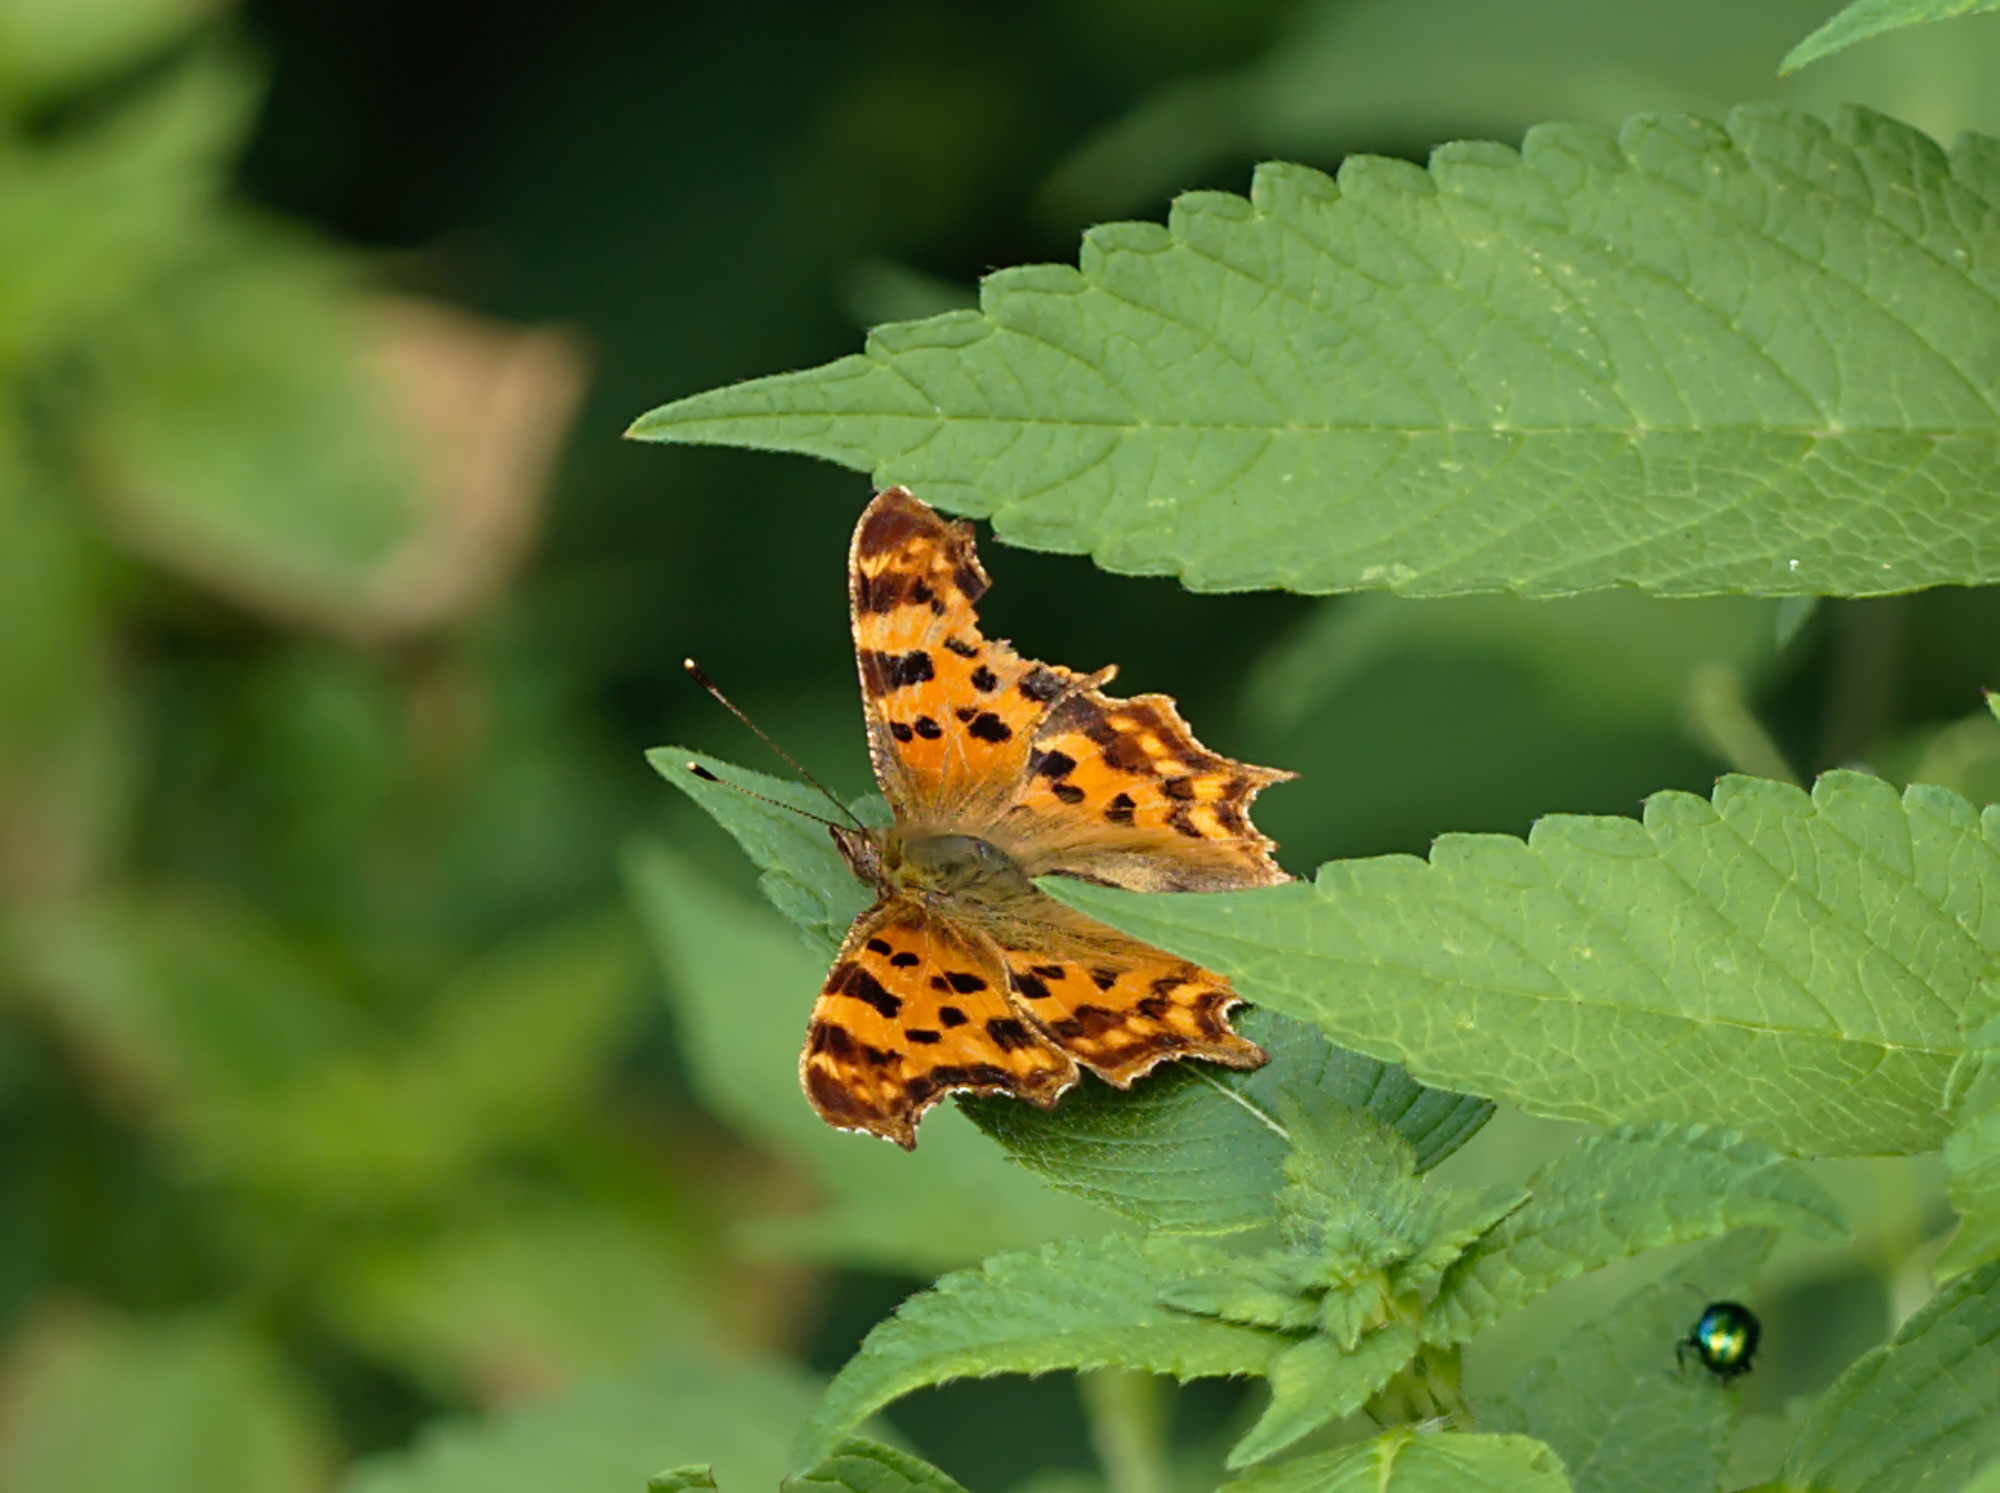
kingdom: Animalia
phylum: Arthropoda
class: Insecta
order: Lepidoptera
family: Nymphalidae
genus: Polygonia
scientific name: Polygonia c-album
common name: Comma
